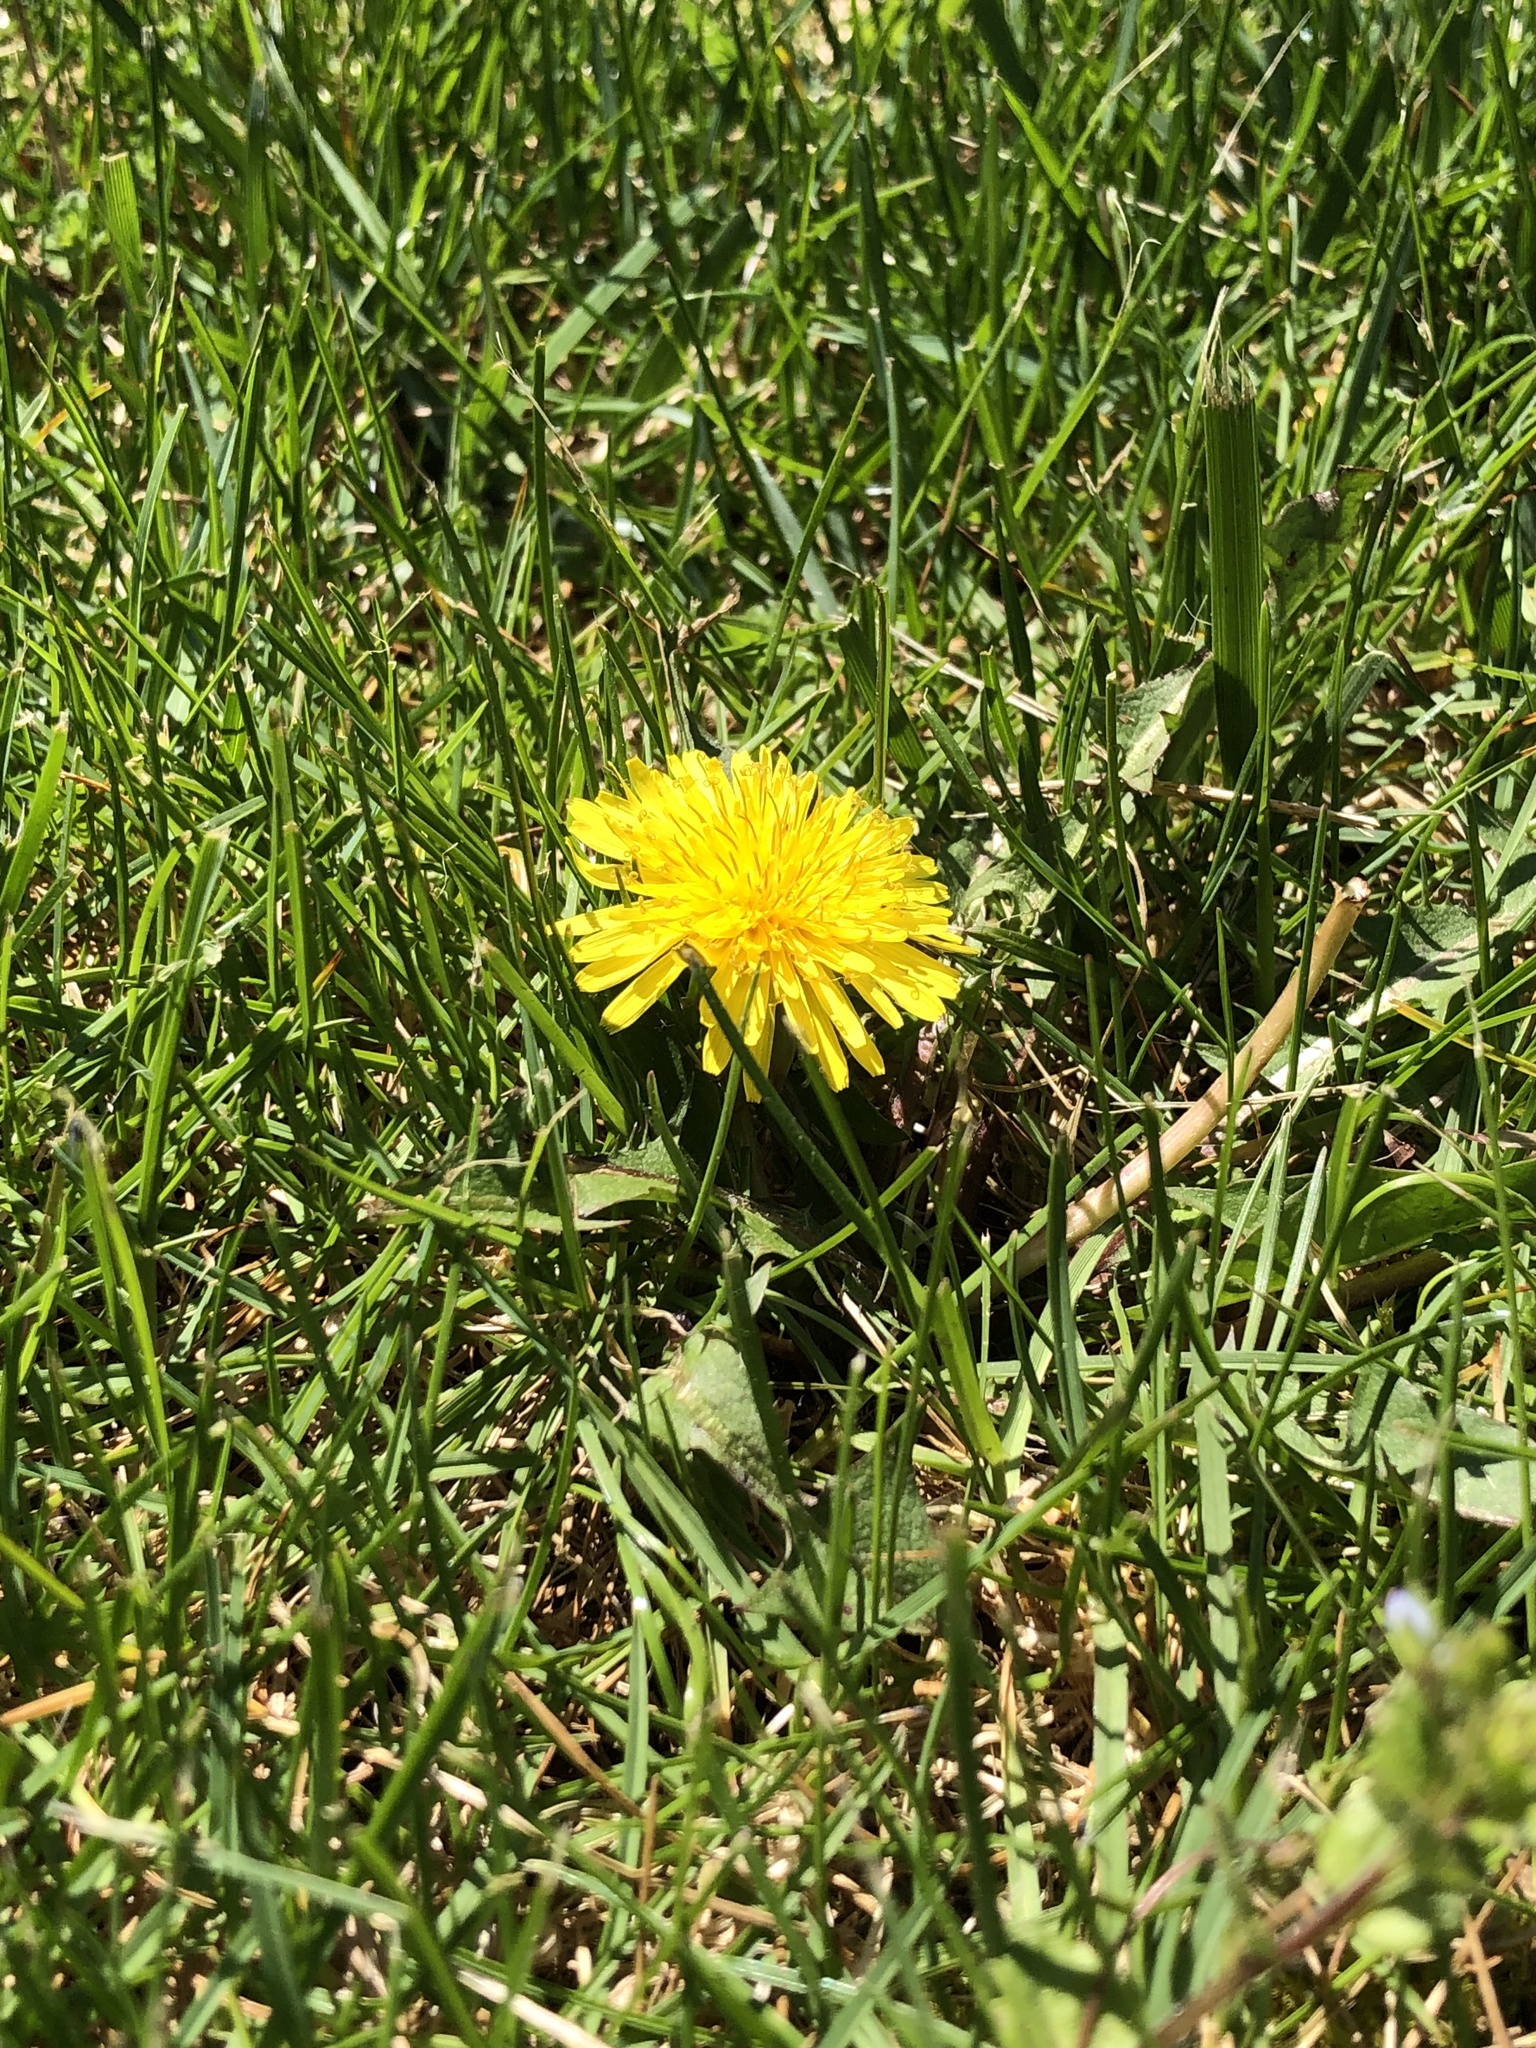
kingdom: Plantae
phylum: Tracheophyta
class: Magnoliopsida
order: Asterales
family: Asteraceae
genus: Taraxacum
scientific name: Taraxacum officinale
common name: Common dandelion
